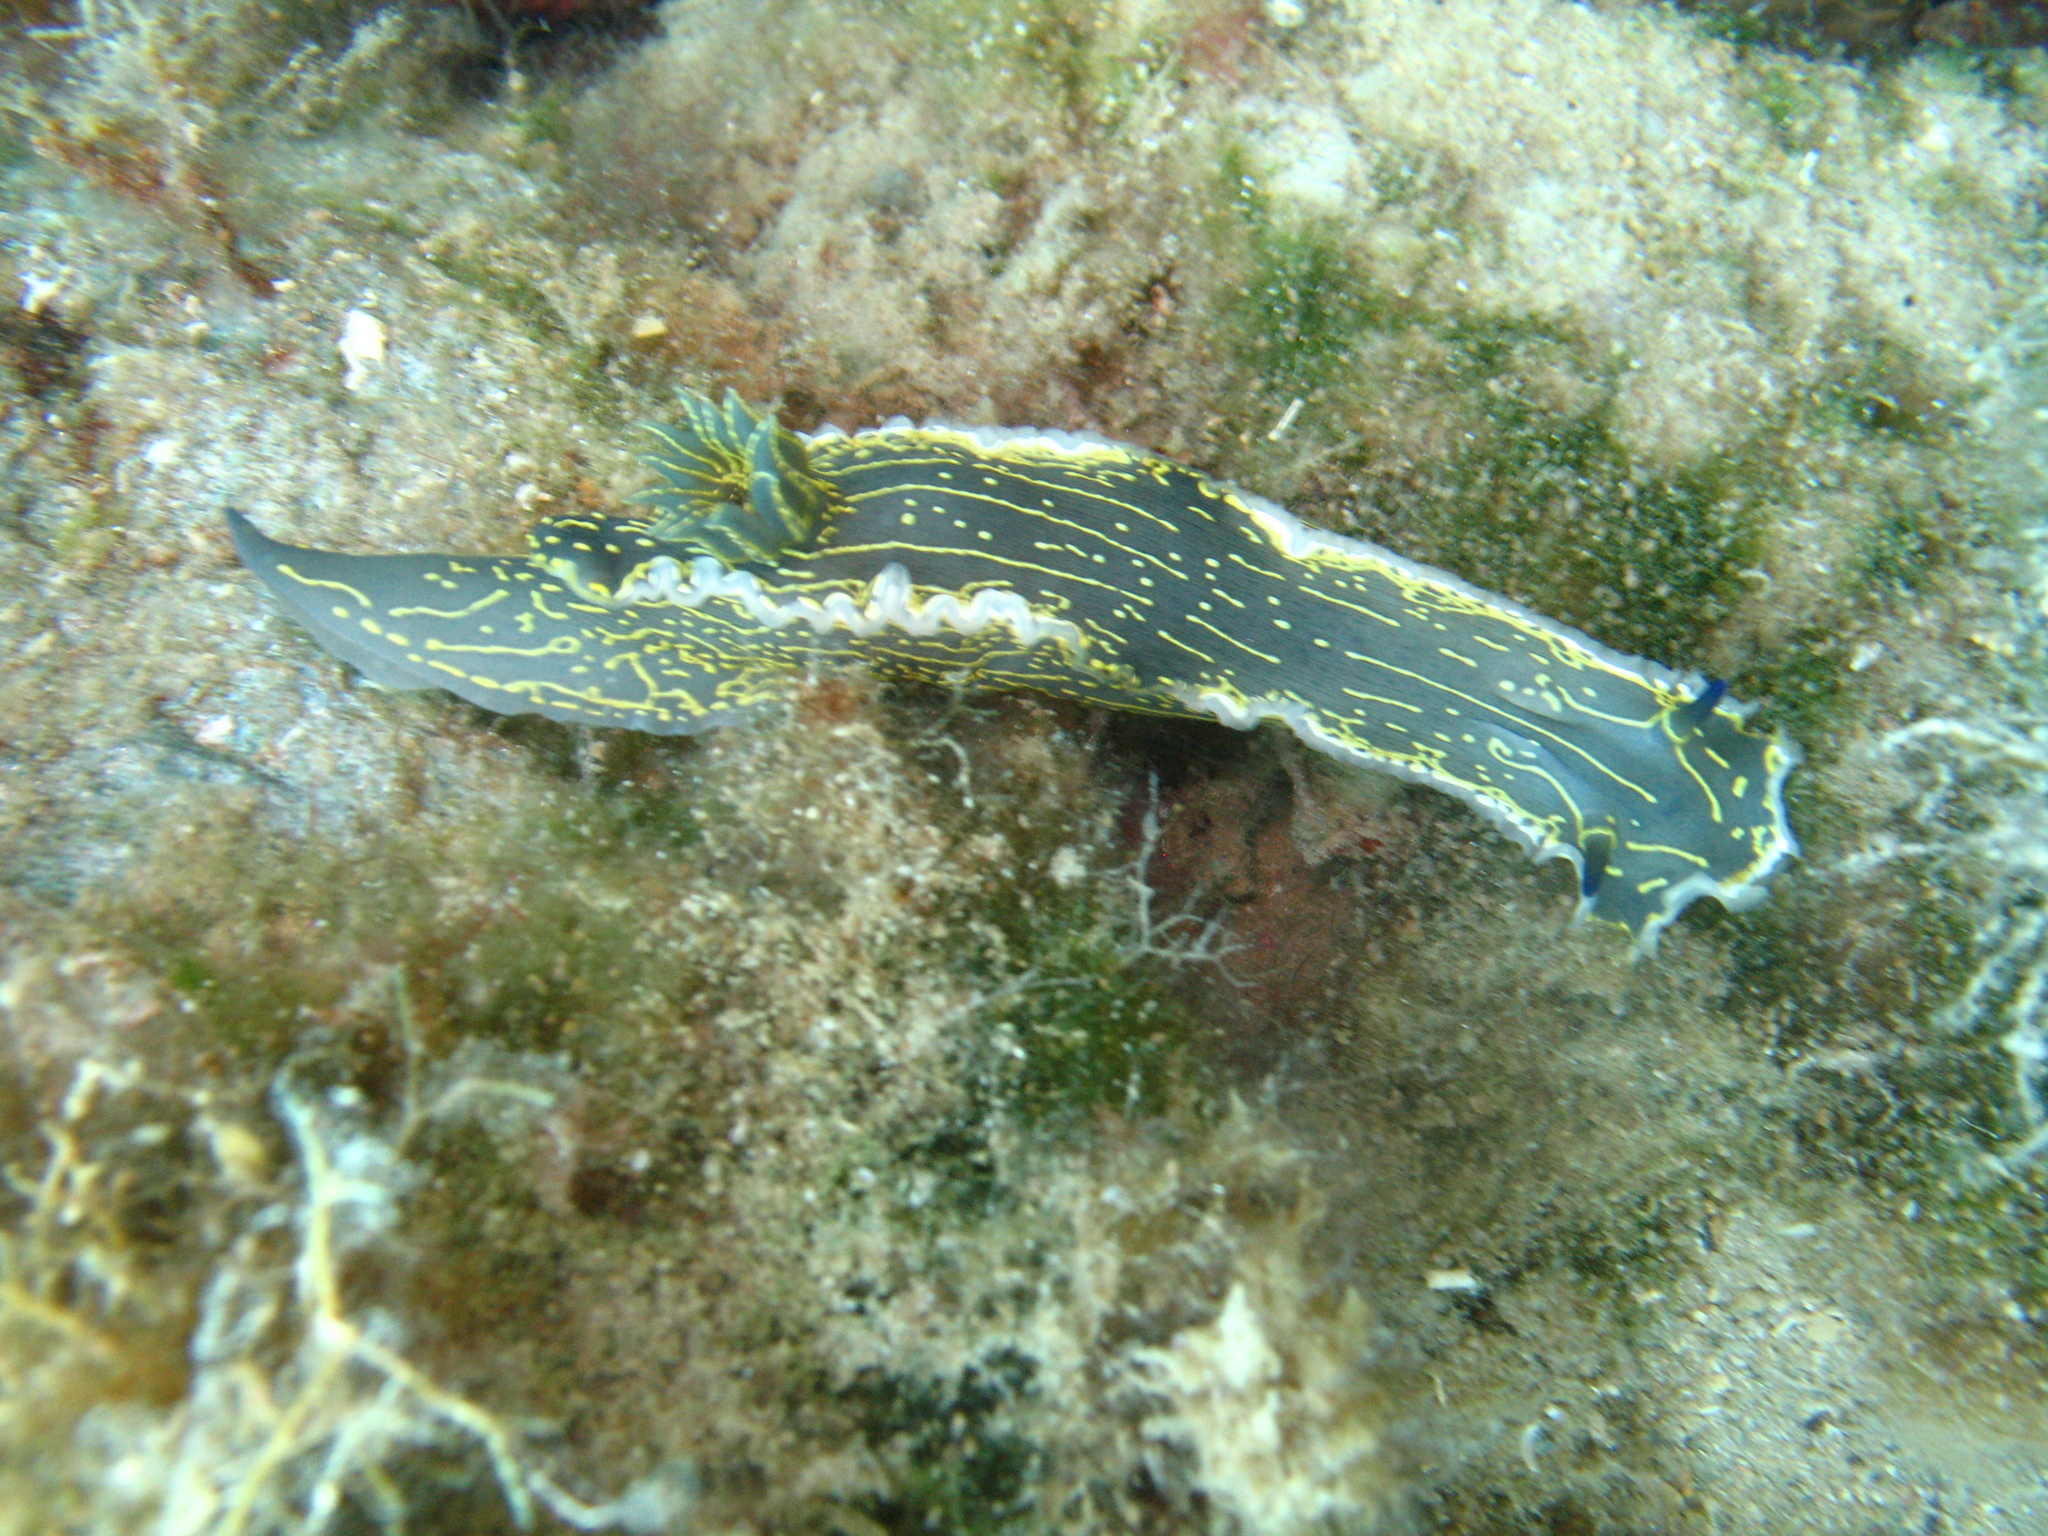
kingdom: Animalia
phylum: Mollusca
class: Gastropoda
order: Nudibranchia
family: Chromodorididae
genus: Felimare
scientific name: Felimare picta
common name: Giant doris
